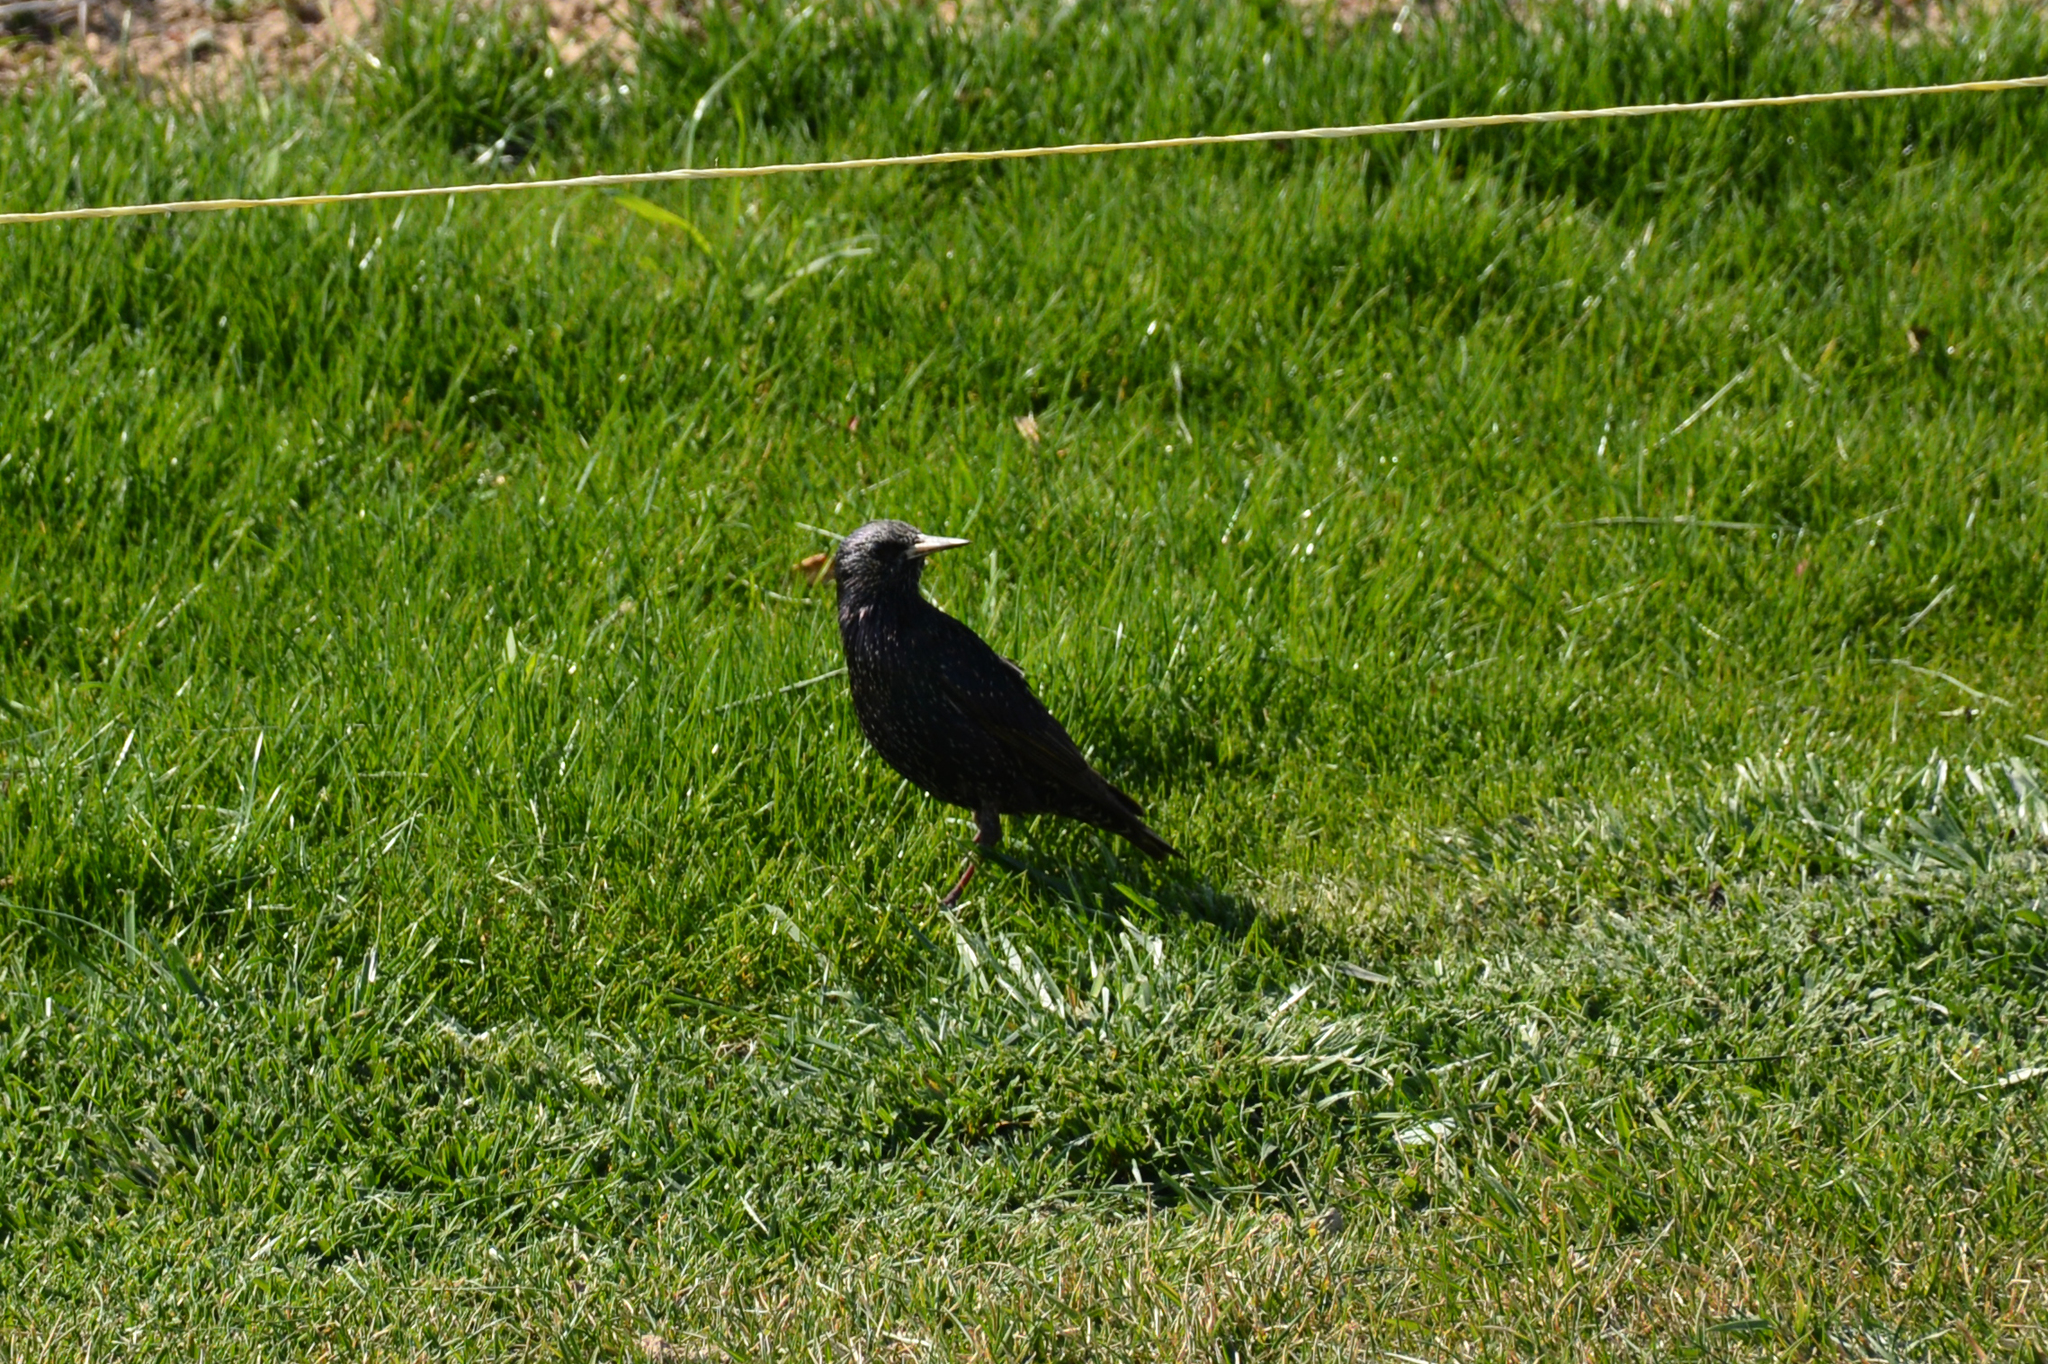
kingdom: Animalia
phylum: Chordata
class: Aves
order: Passeriformes
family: Sturnidae
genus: Sturnus
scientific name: Sturnus vulgaris
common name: Common starling
